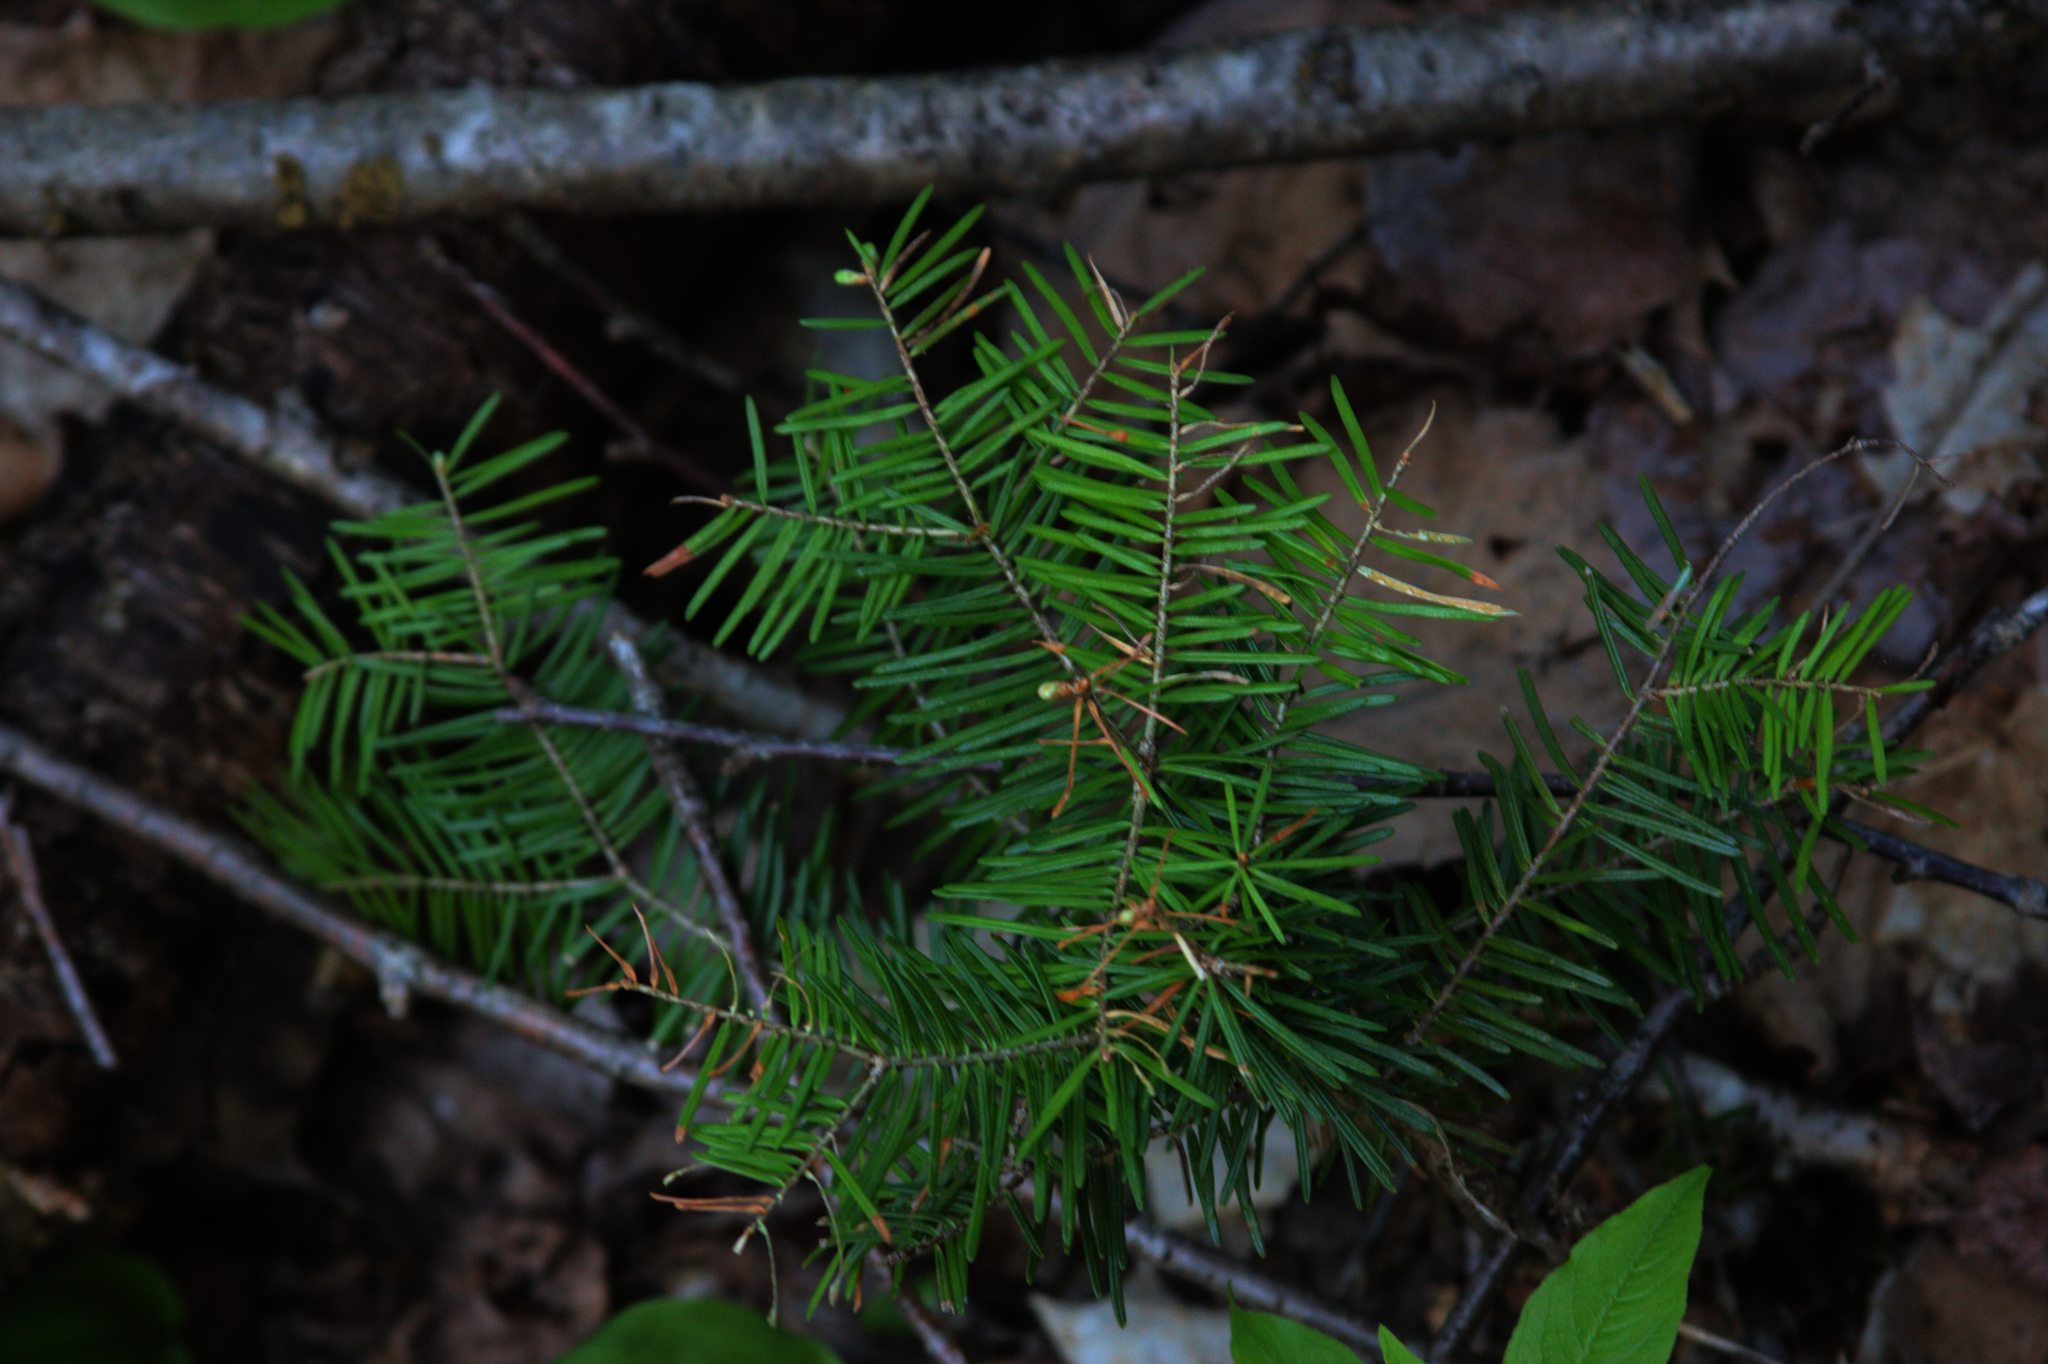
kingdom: Plantae
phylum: Tracheophyta
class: Pinopsida
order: Pinales
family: Pinaceae
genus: Abies
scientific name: Abies balsamea
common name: Balsam fir
